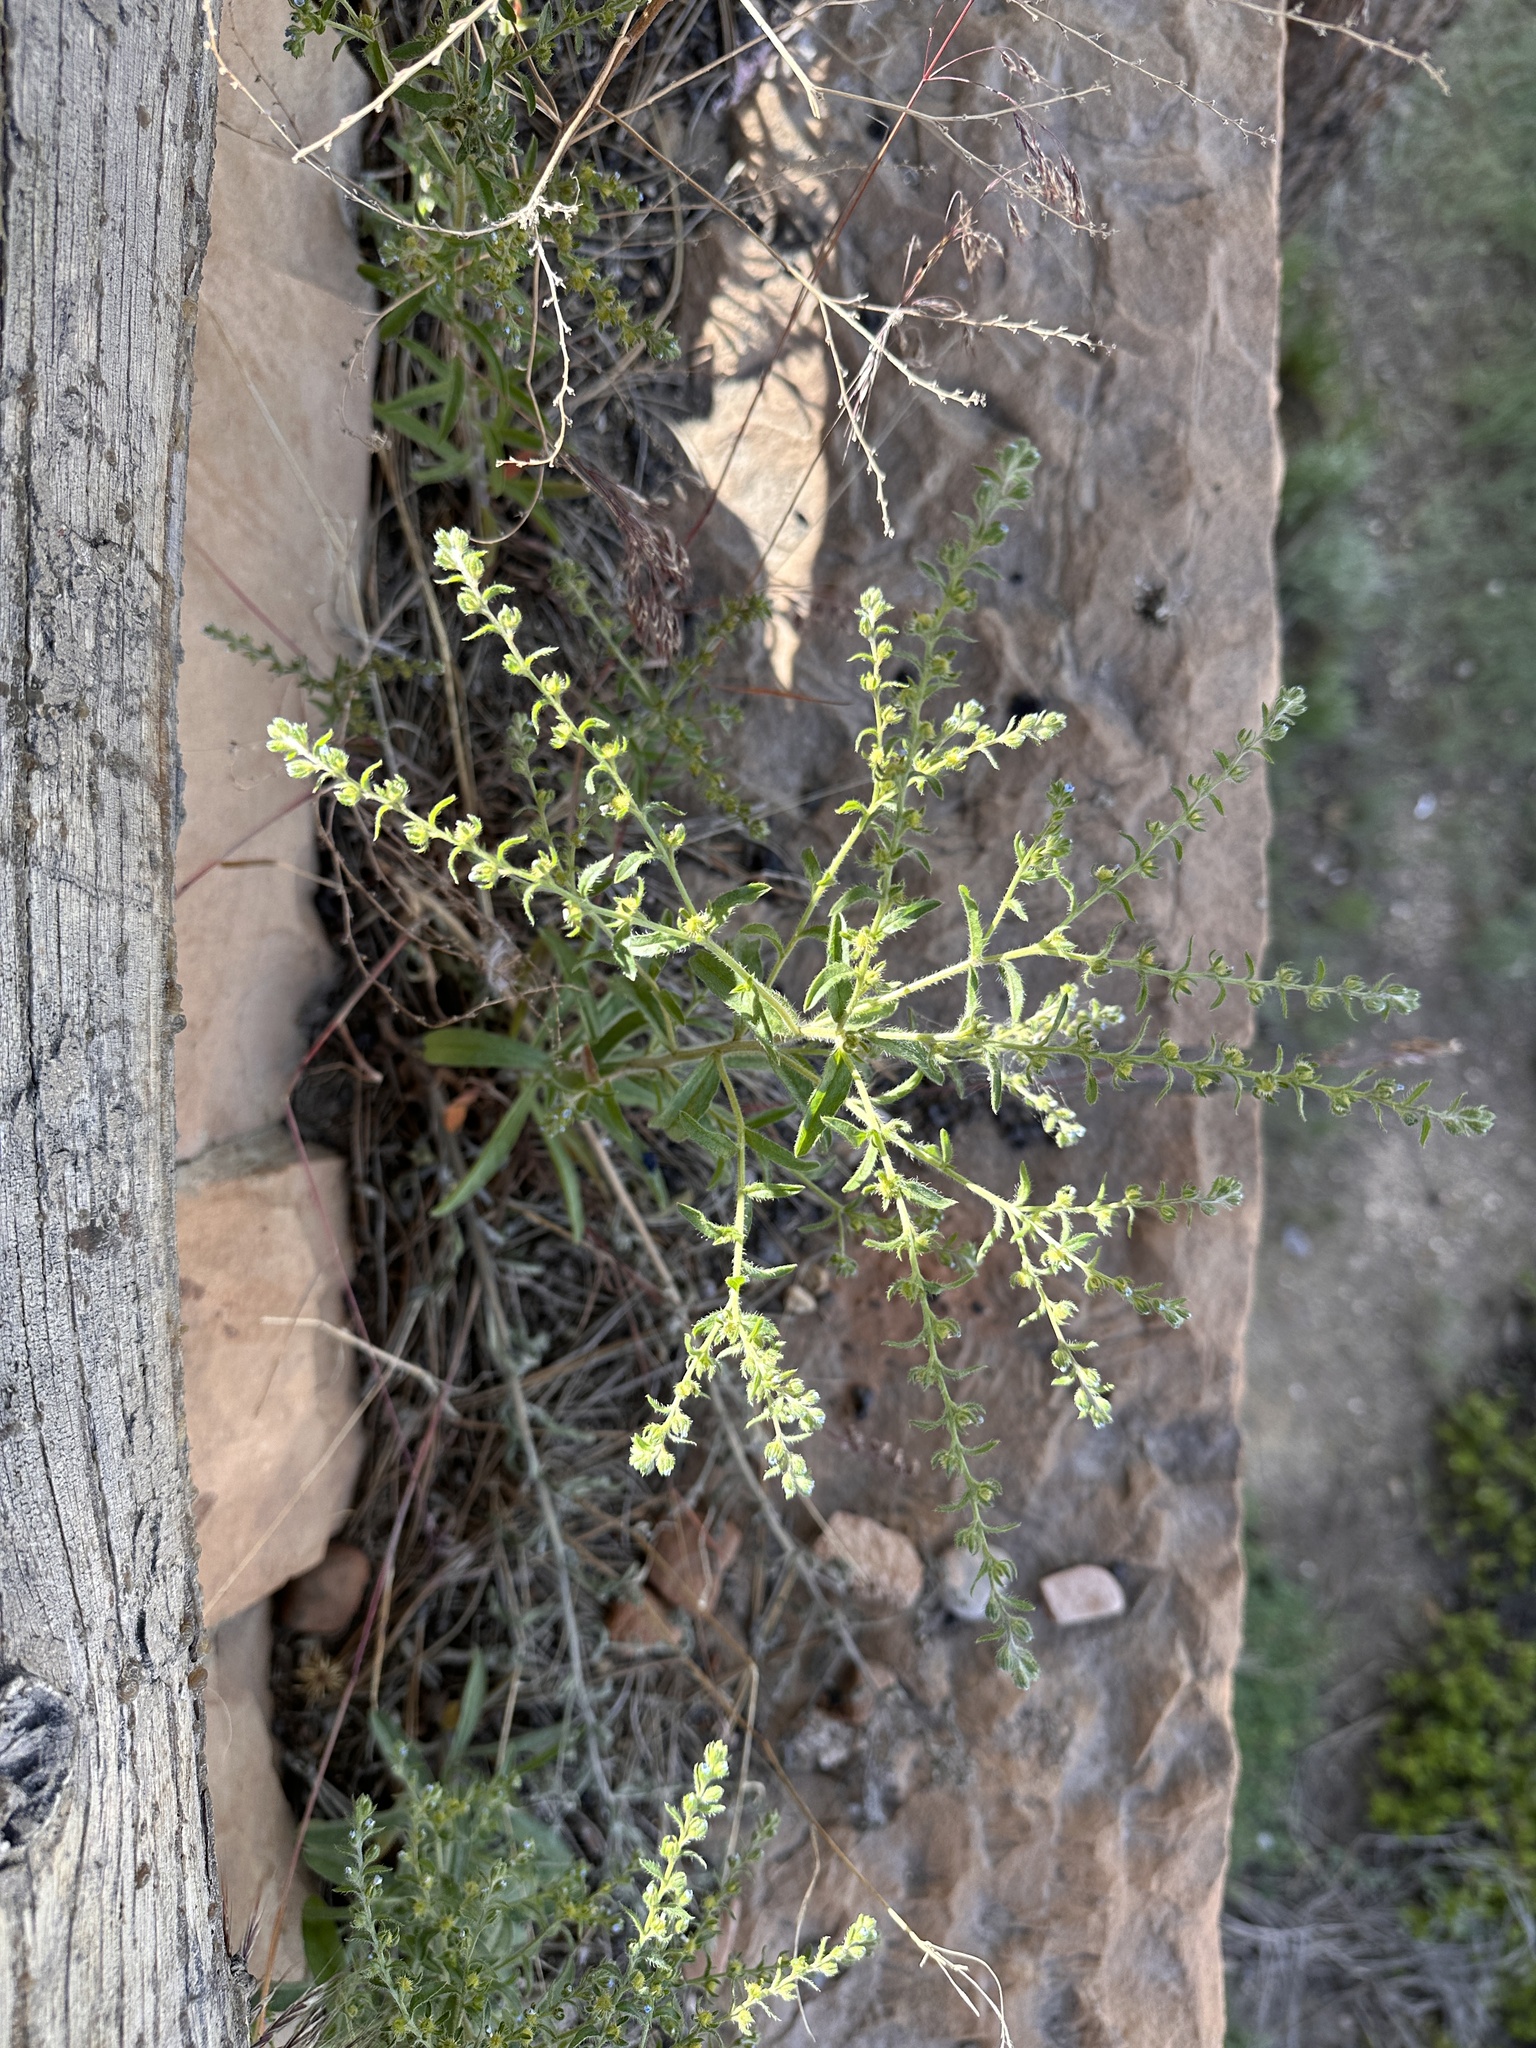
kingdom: Plantae
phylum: Tracheophyta
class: Magnoliopsida
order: Boraginales
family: Boraginaceae
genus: Lappula
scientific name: Lappula occidentalis
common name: Western stickseed
